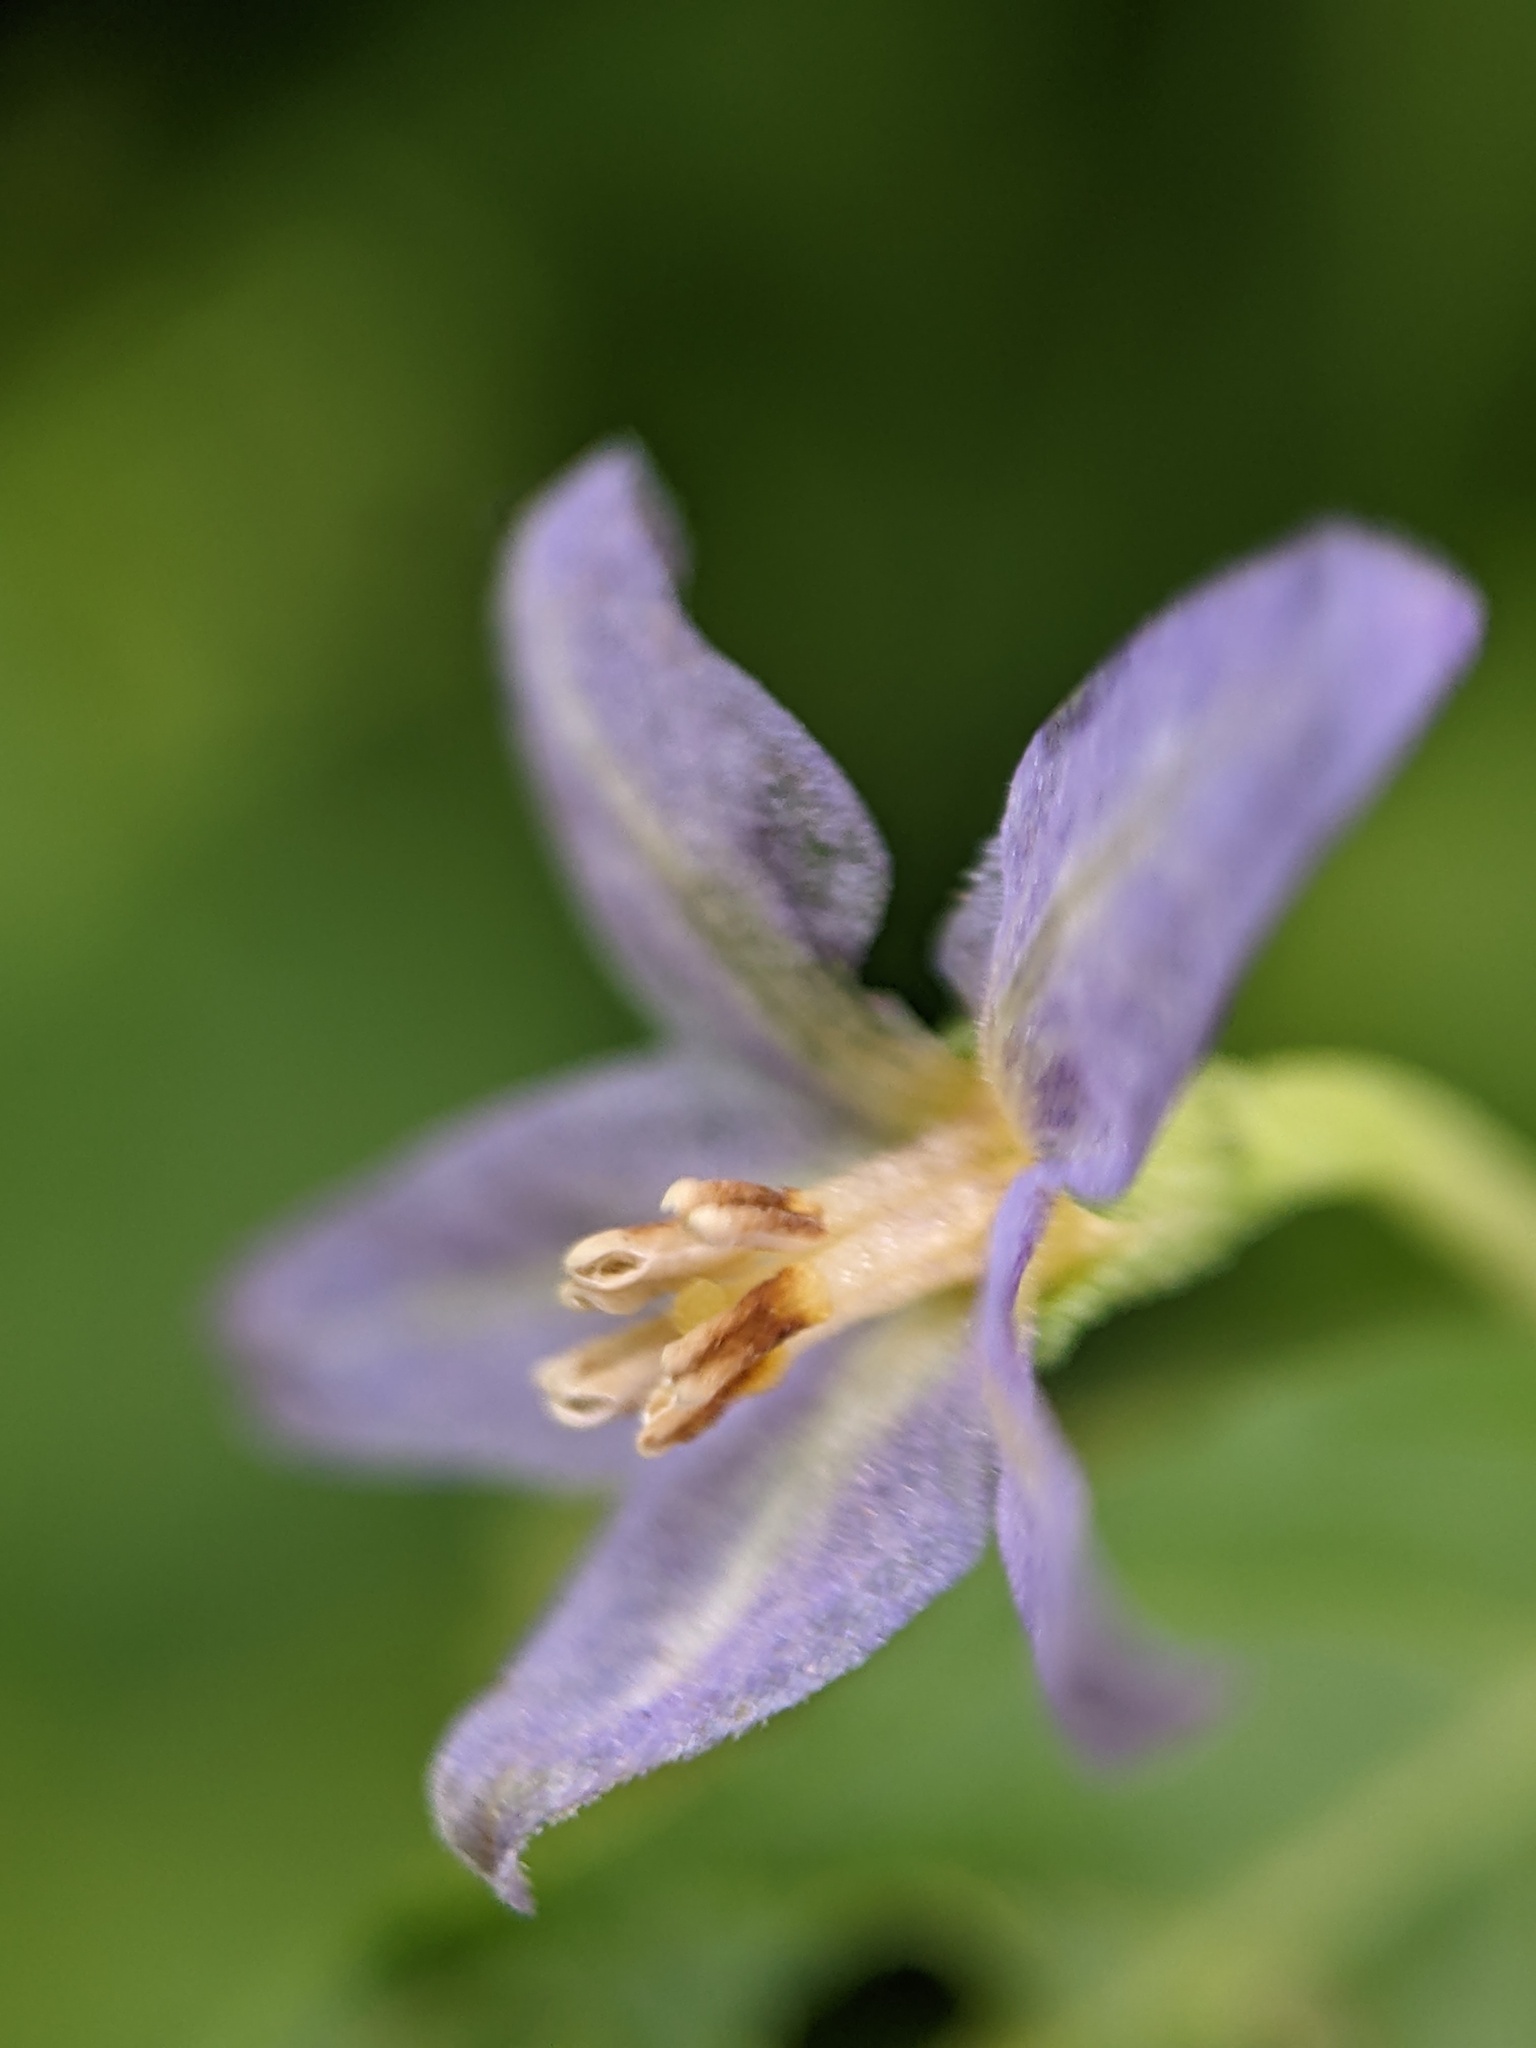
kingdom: Plantae
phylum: Tracheophyta
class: Magnoliopsida
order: Solanales
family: Solanaceae
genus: Solanum
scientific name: Solanum emulans
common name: Eastern black nightshade
